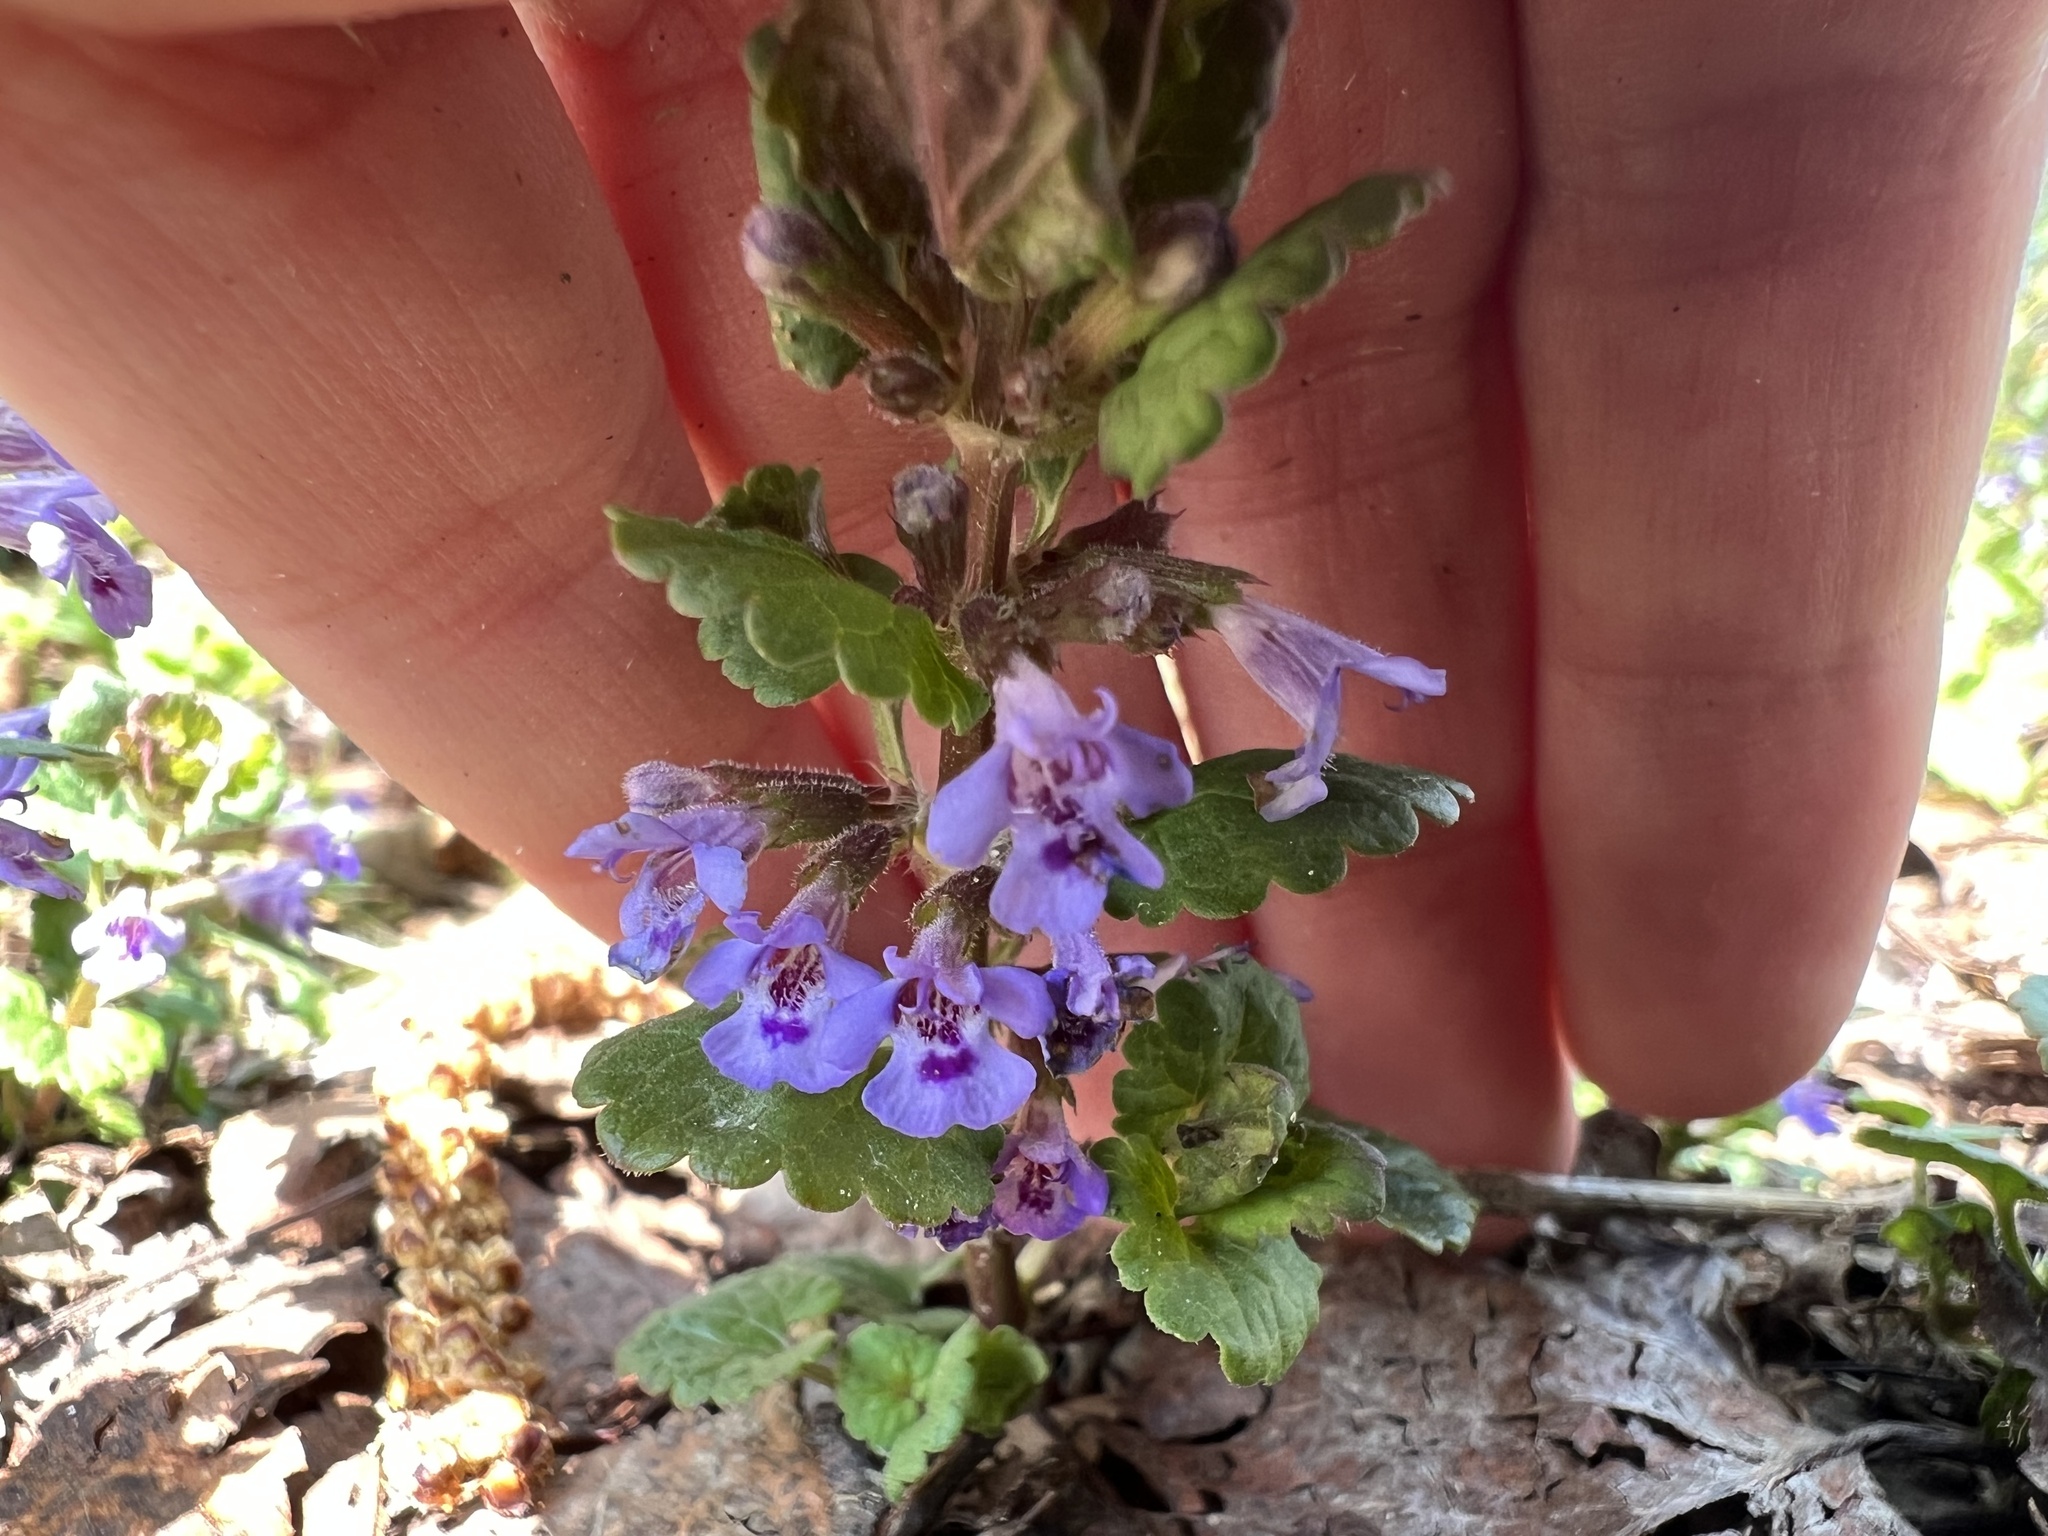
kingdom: Plantae
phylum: Tracheophyta
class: Magnoliopsida
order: Lamiales
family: Lamiaceae
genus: Glechoma
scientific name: Glechoma hederacea
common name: Ground ivy
